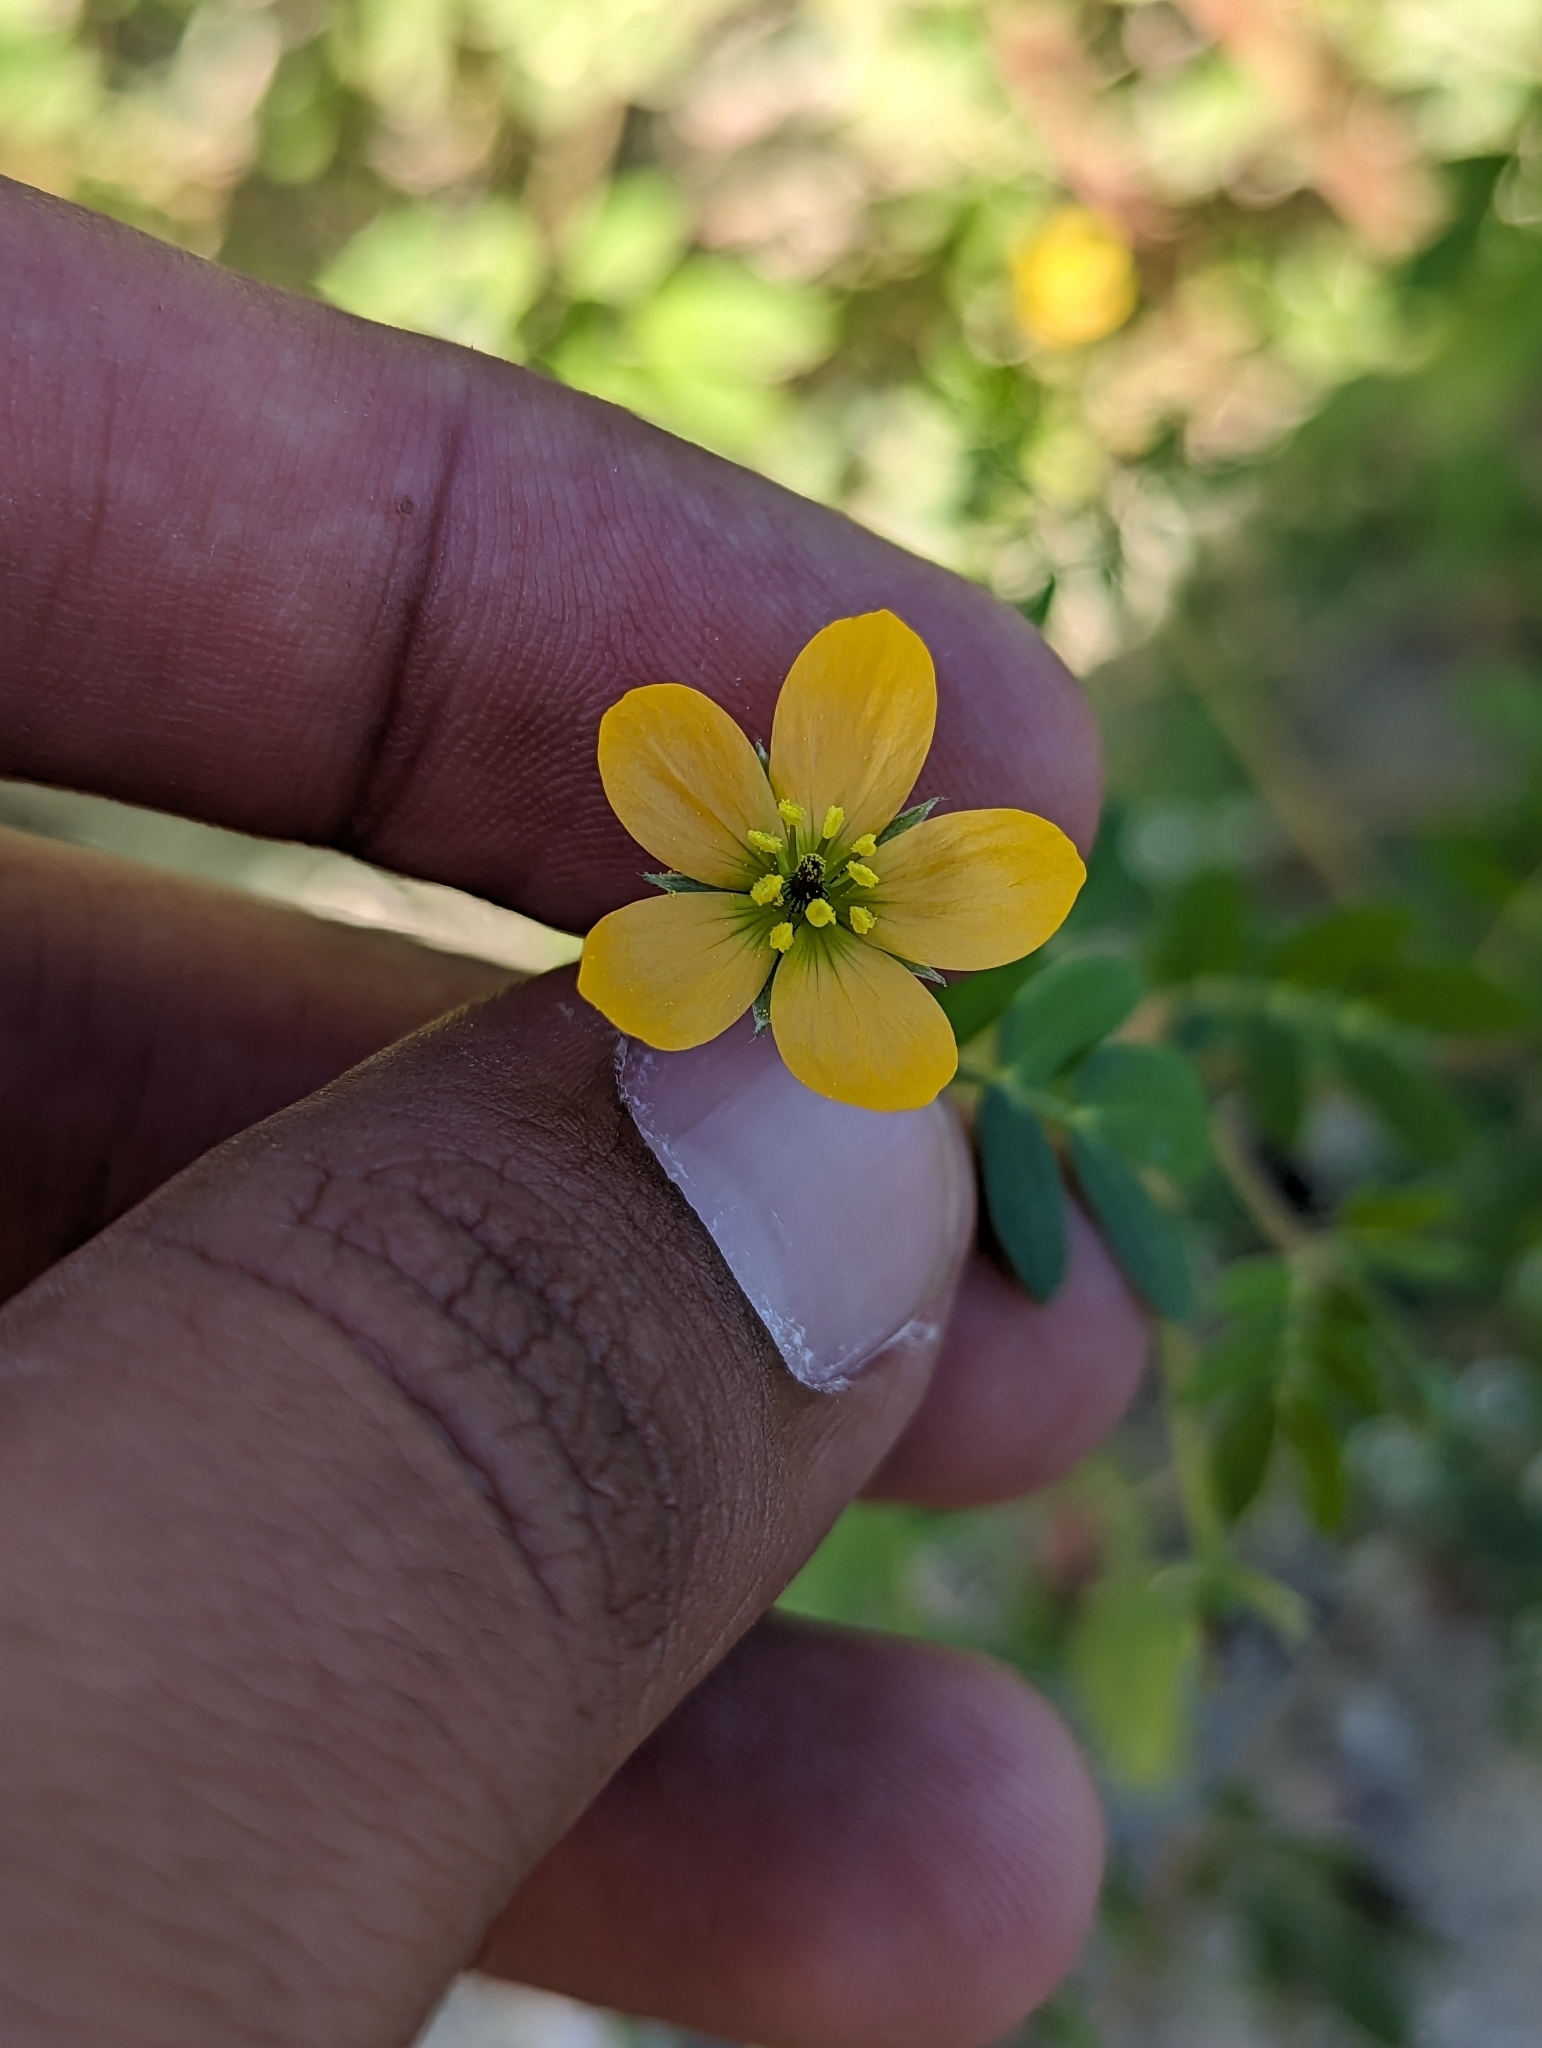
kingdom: Plantae
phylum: Tracheophyta
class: Magnoliopsida
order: Zygophyllales
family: Zygophyllaceae
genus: Kallstroemia
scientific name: Kallstroemia californica
